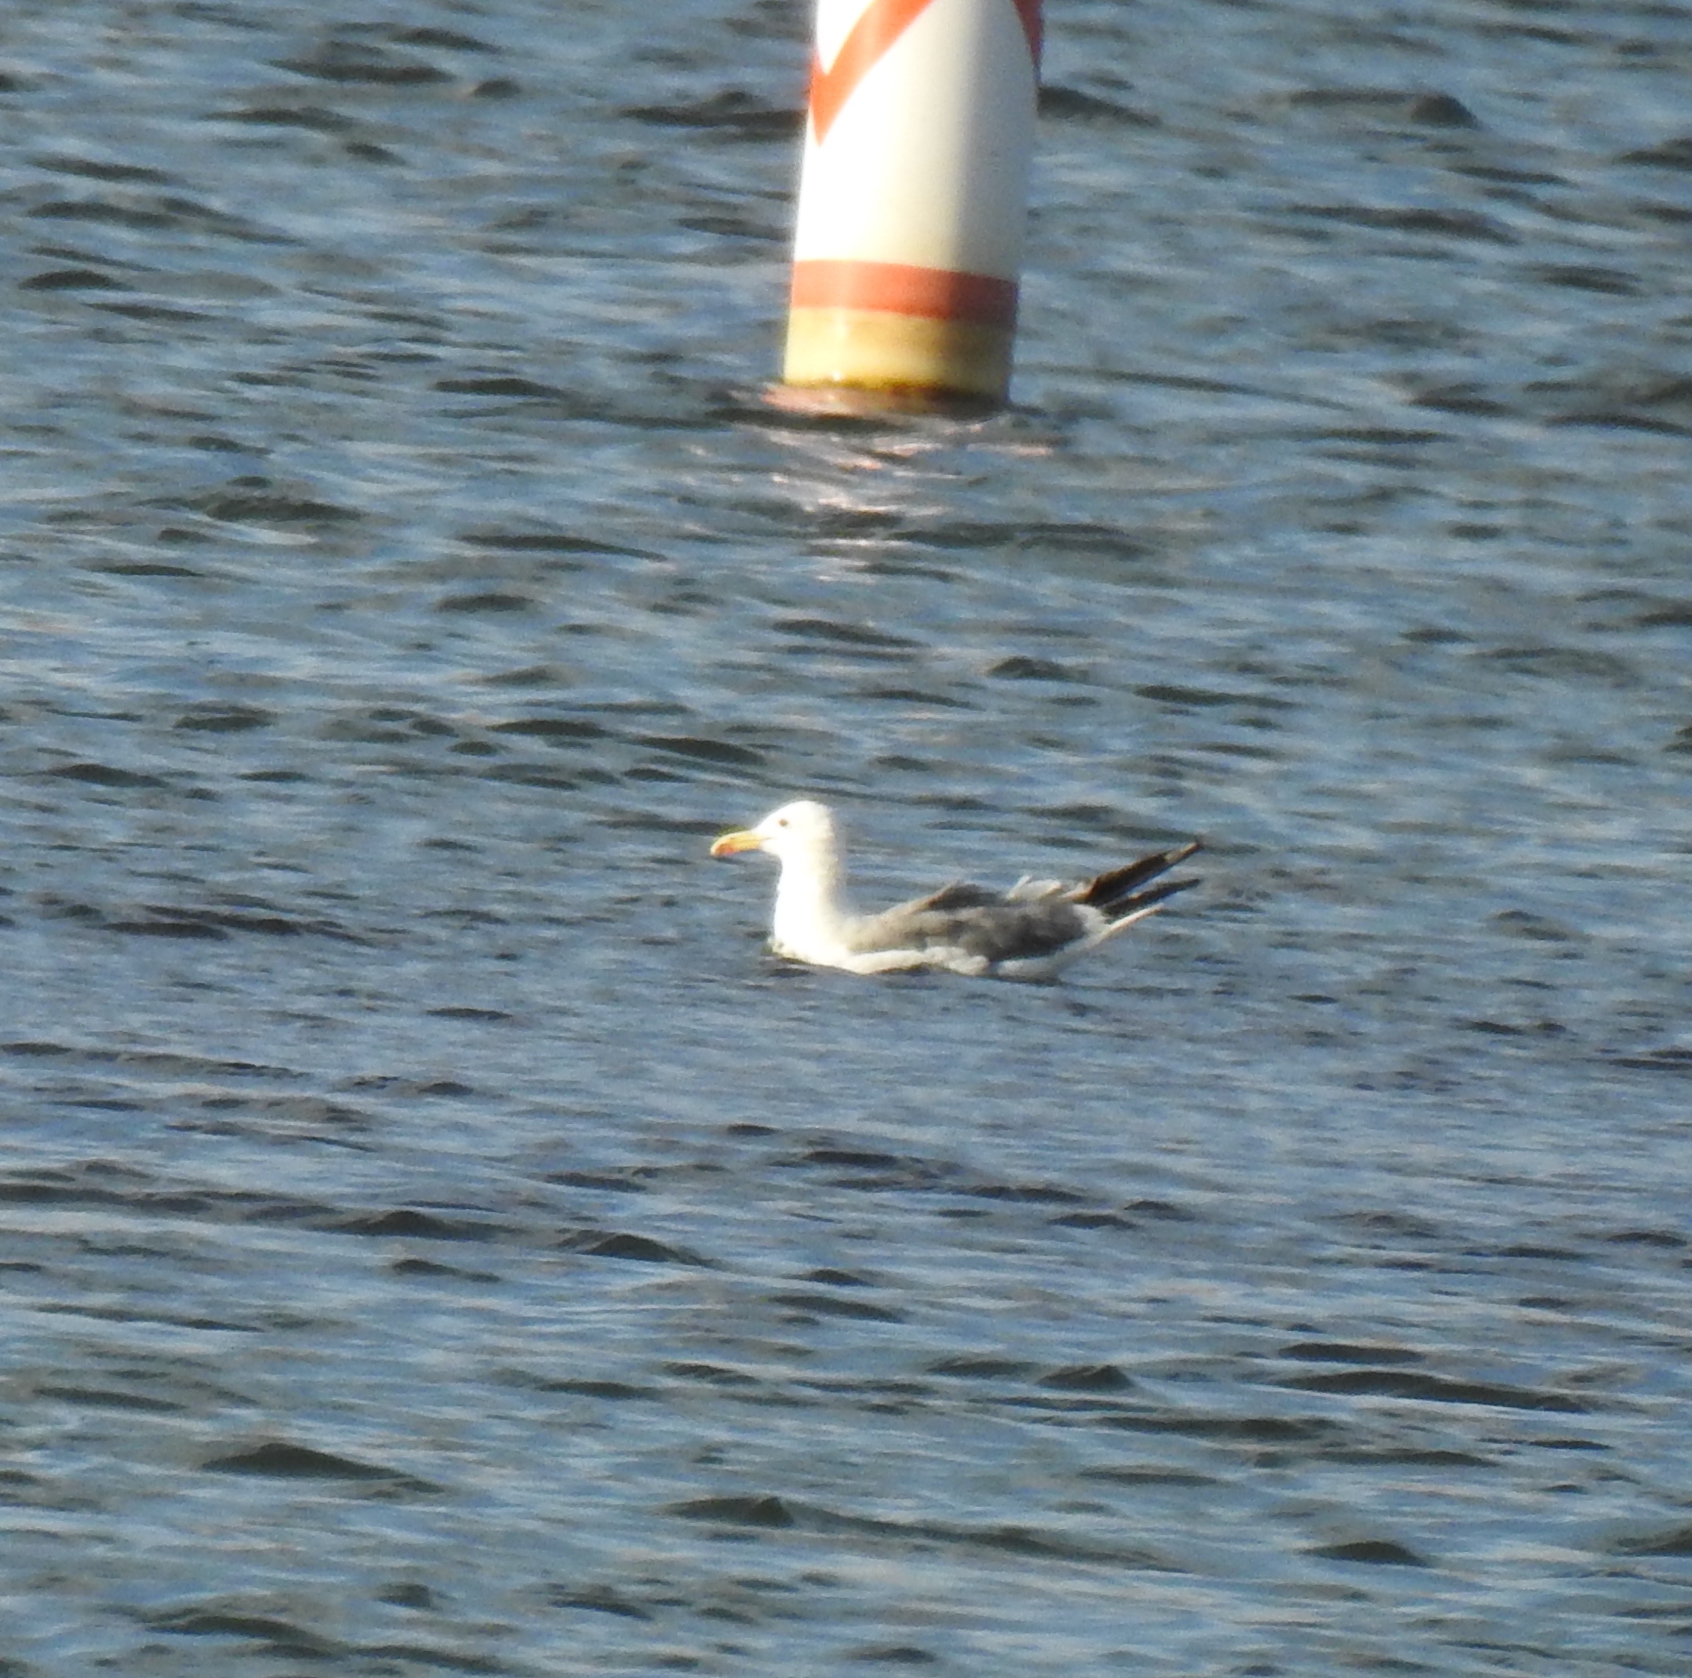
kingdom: Animalia
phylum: Chordata
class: Aves
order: Charadriiformes
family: Laridae
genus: Larus
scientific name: Larus occidentalis
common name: Western gull
